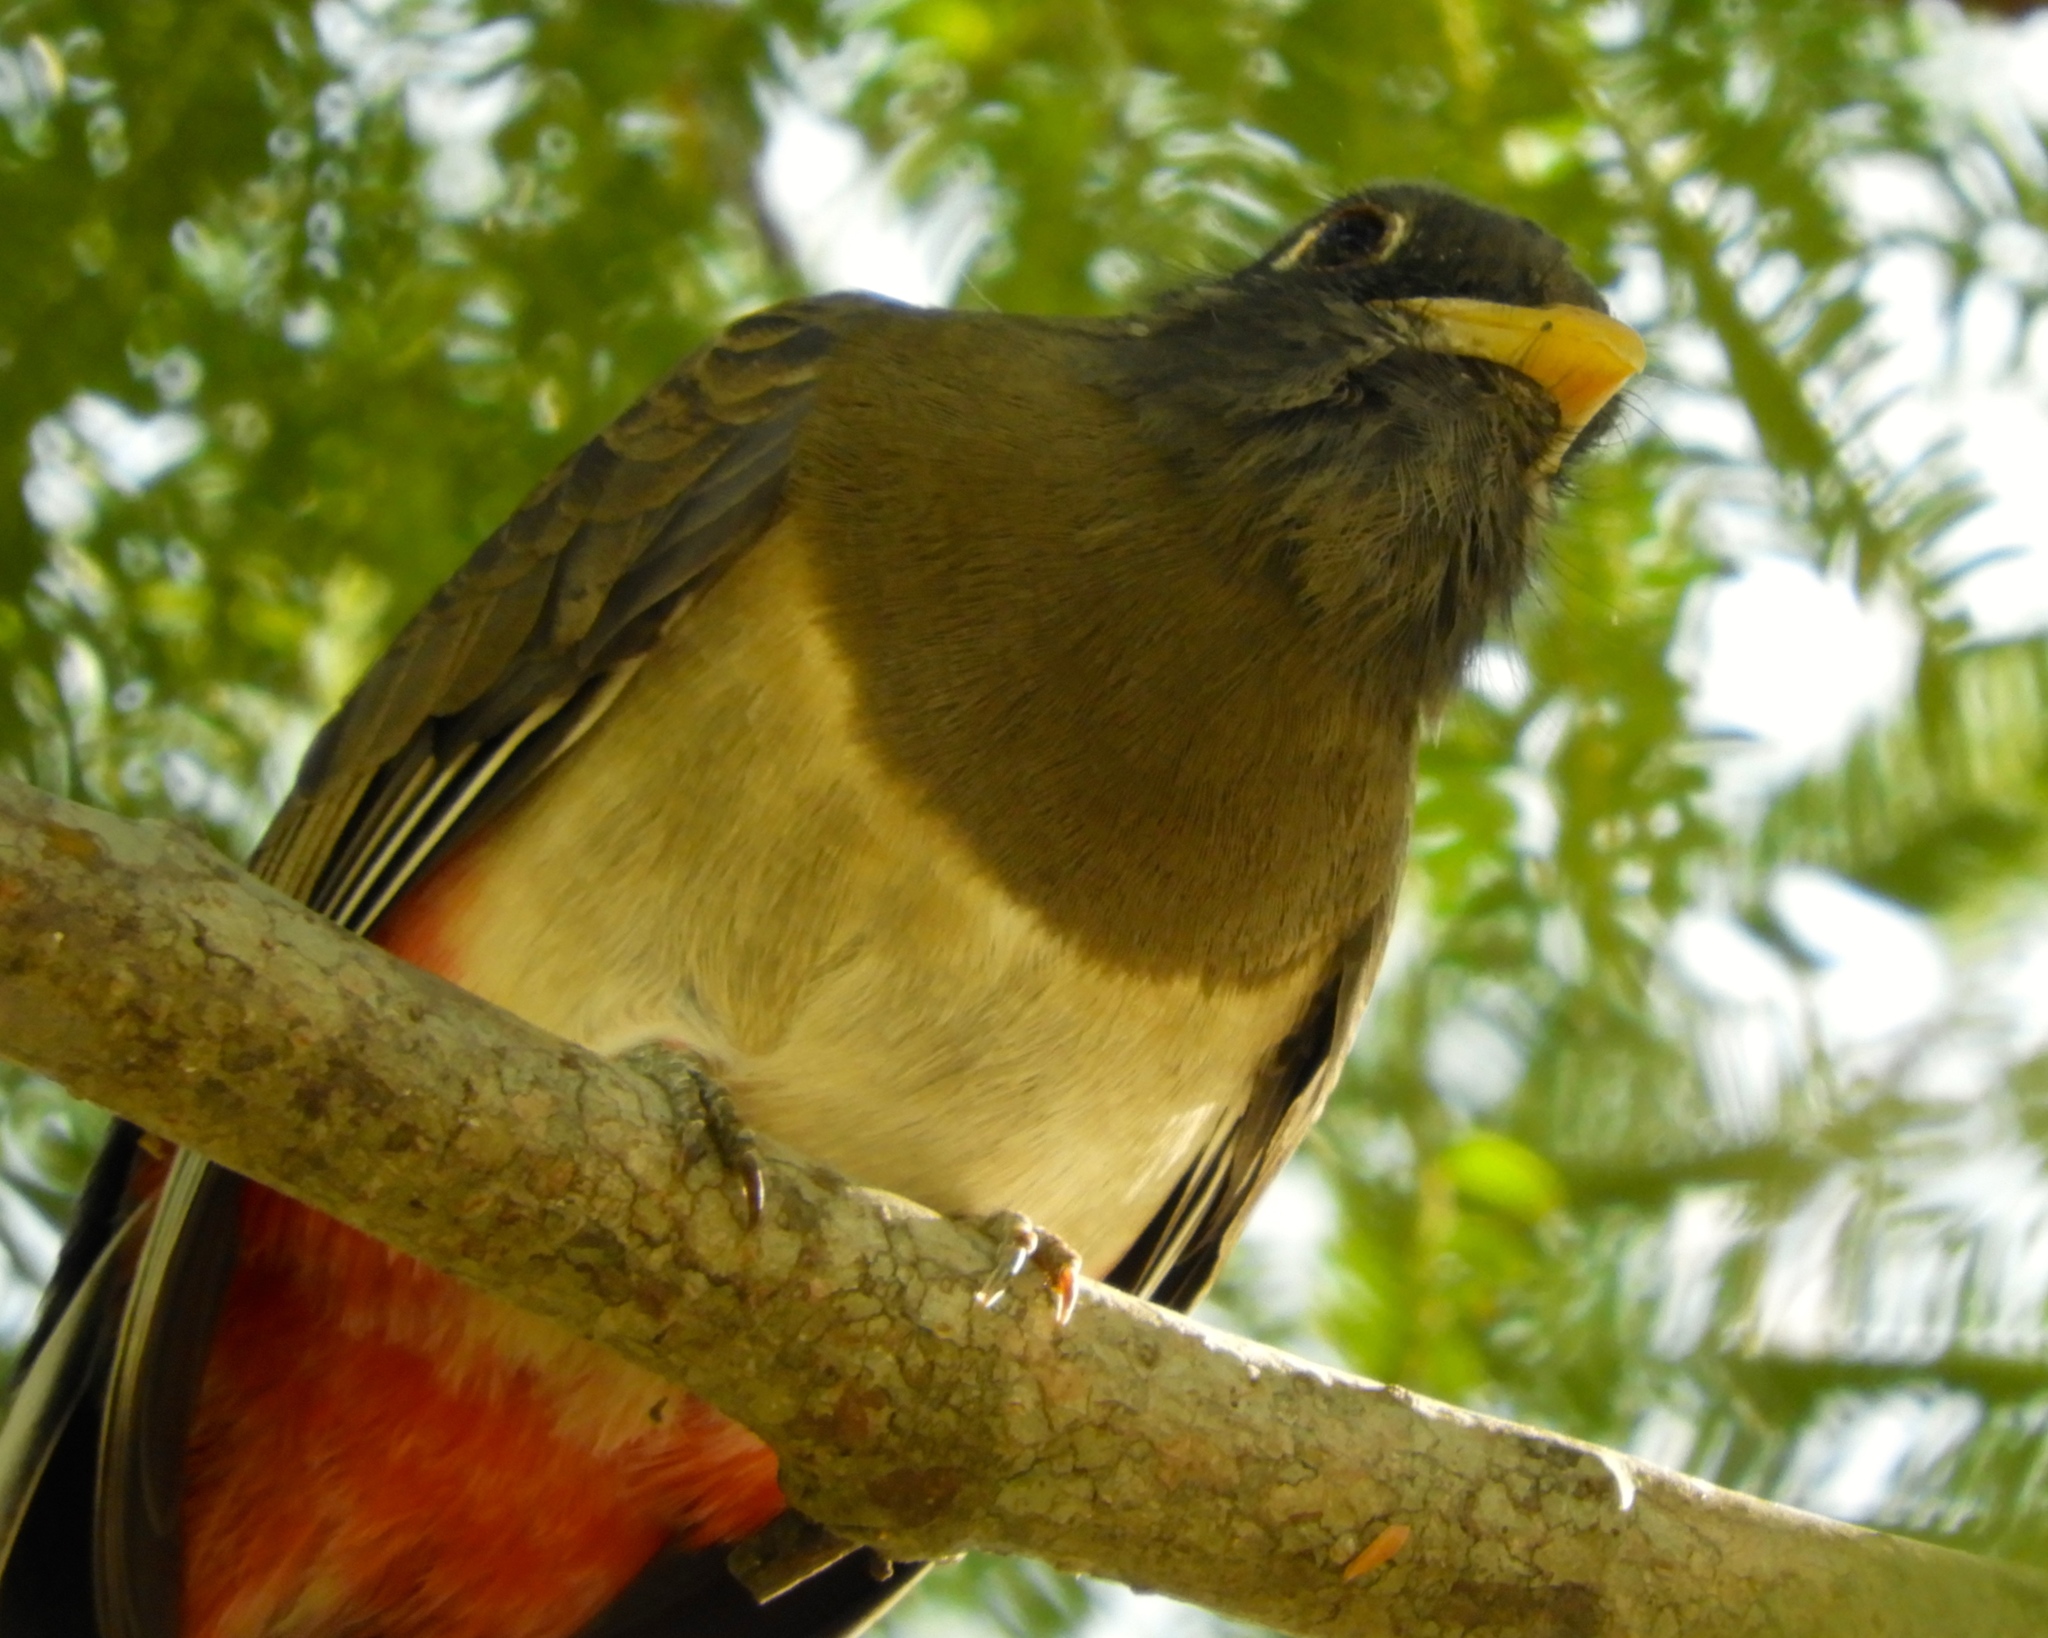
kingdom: Animalia
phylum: Chordata
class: Aves
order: Trogoniformes
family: Trogonidae
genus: Trogon
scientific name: Trogon elegans
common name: Elegant trogon
